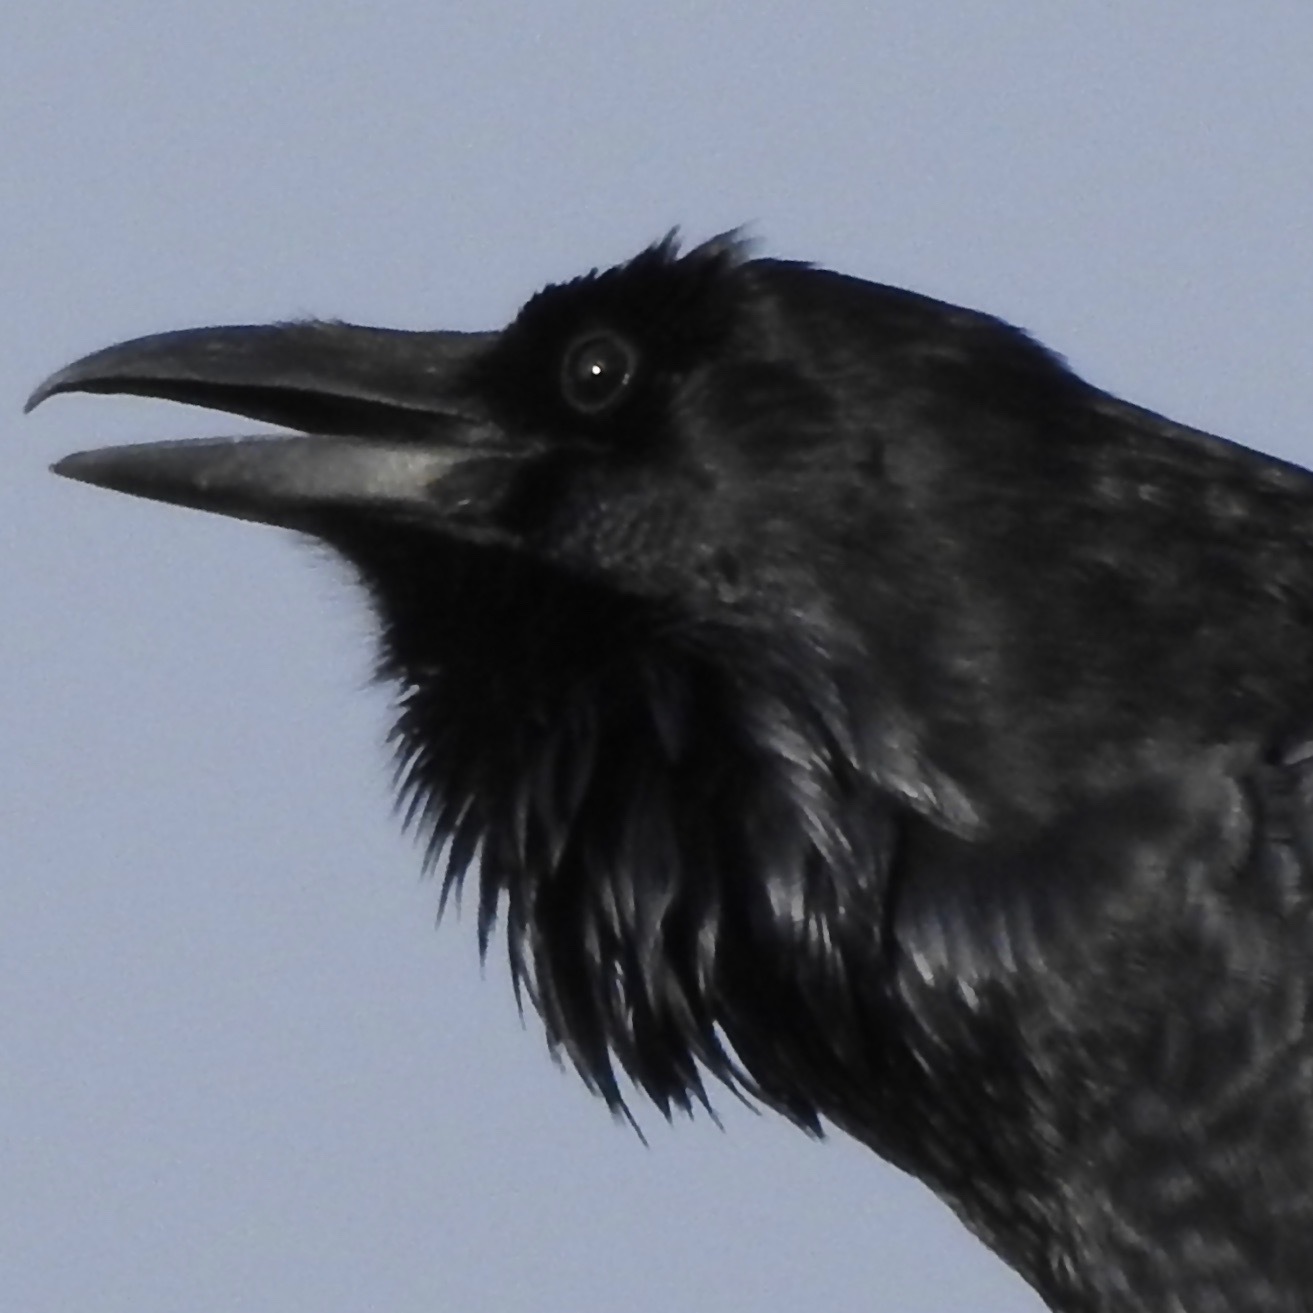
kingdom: Animalia
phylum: Chordata
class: Aves
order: Passeriformes
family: Corvidae
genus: Corvus
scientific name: Corvus corax
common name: Common raven
